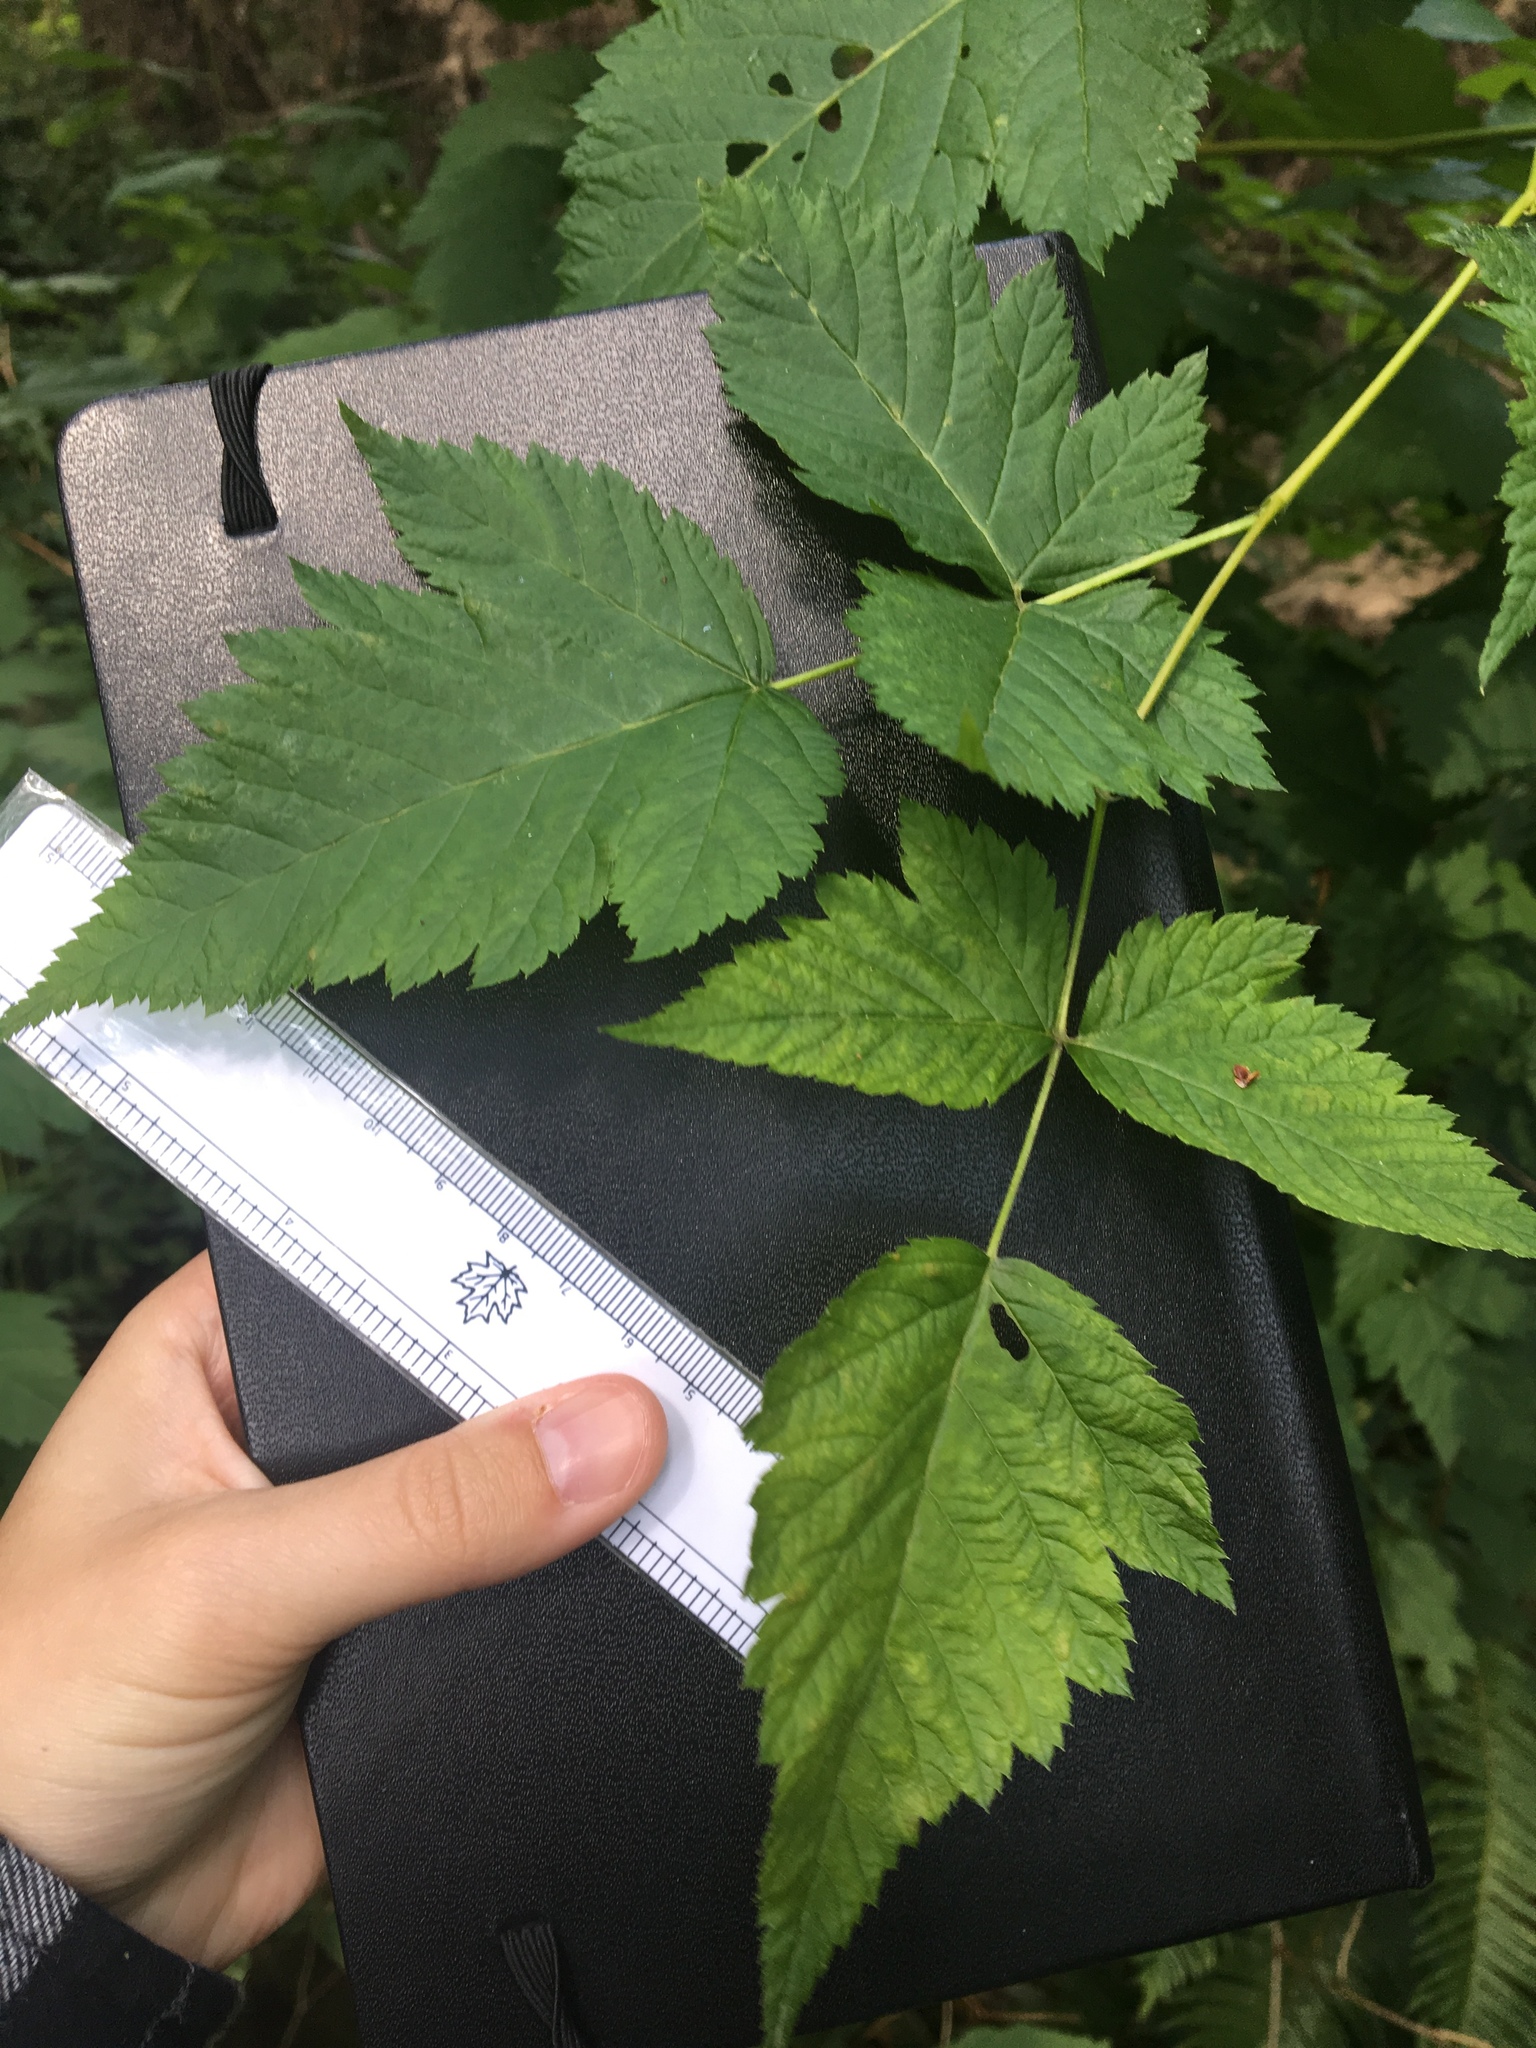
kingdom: Plantae
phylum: Tracheophyta
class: Magnoliopsida
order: Rosales
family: Rosaceae
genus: Rubus
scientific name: Rubus spectabilis
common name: Salmonberry
